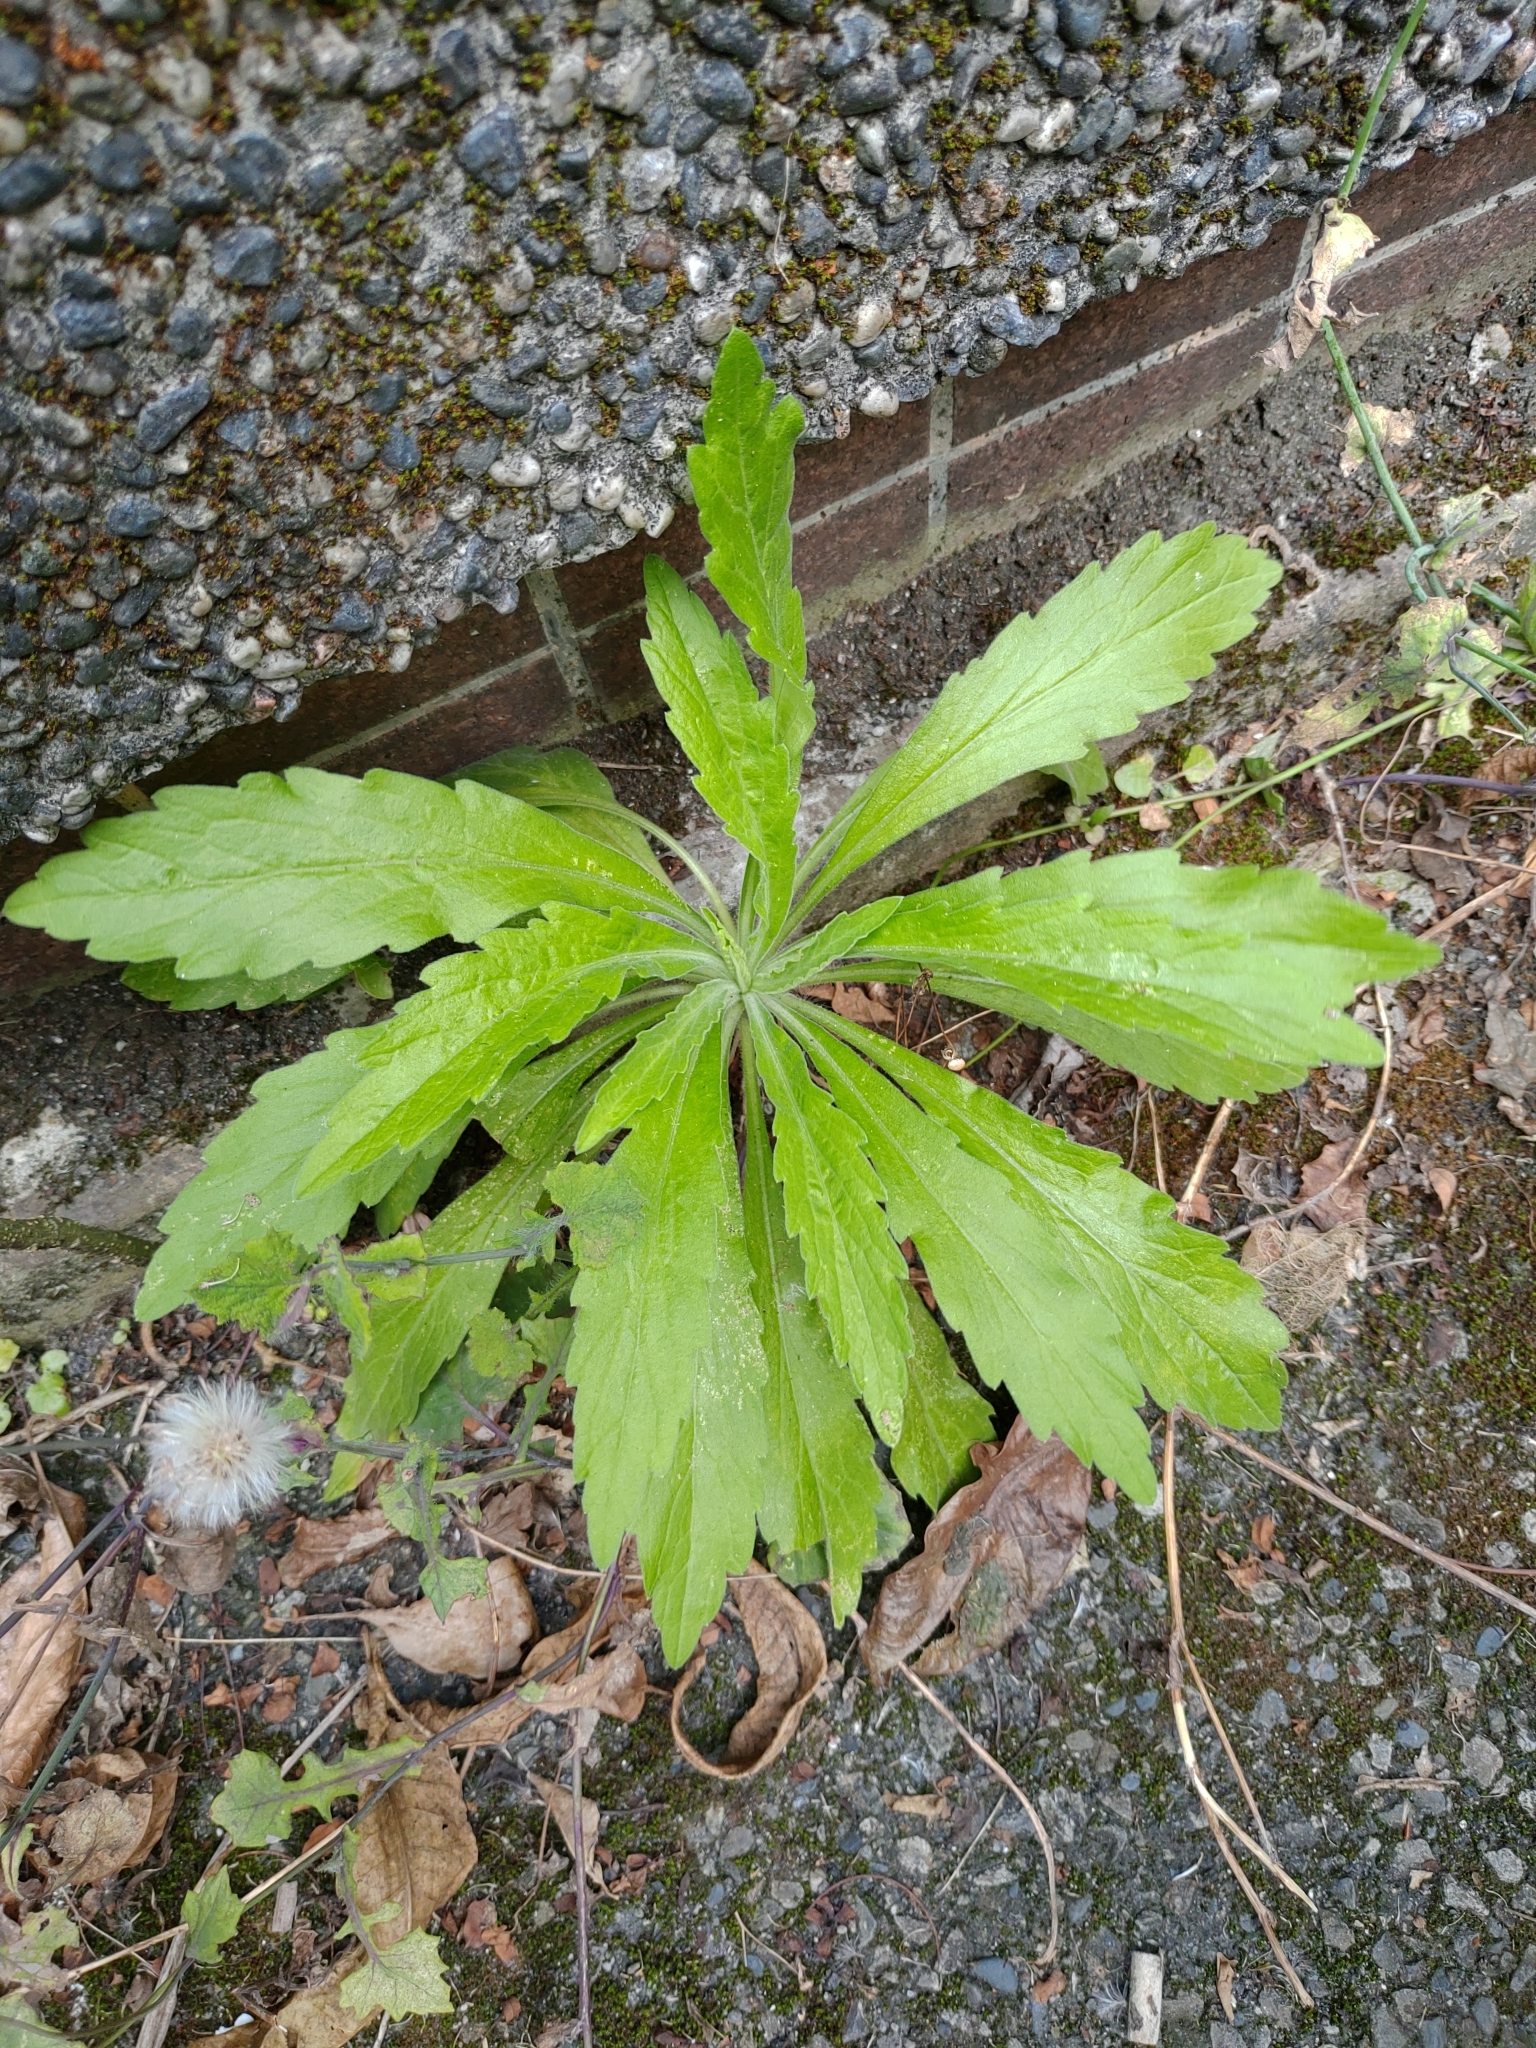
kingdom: Plantae
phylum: Tracheophyta
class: Magnoliopsida
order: Asterales
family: Asteraceae
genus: Erigeron
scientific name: Erigeron sumatrensis
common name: Daisy
